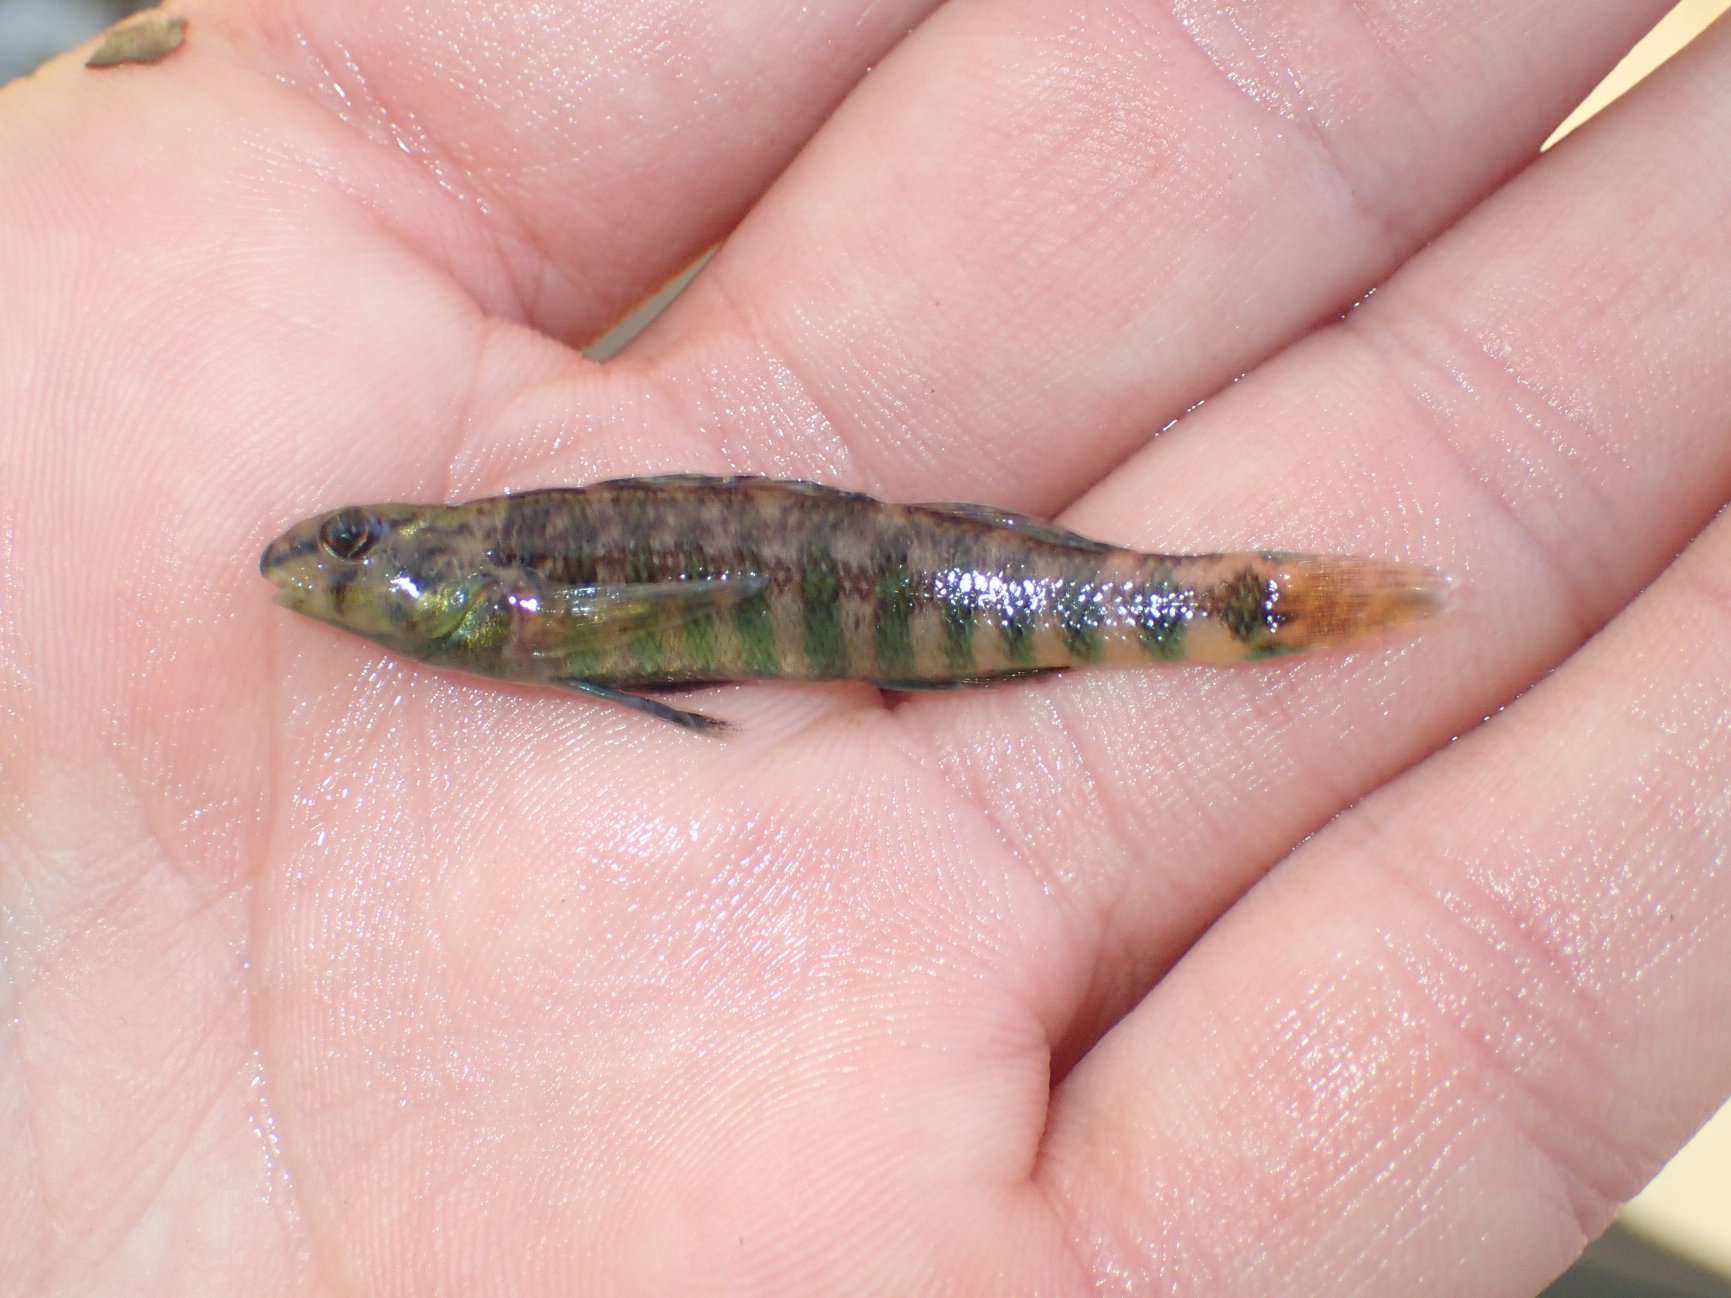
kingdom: Animalia
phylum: Chordata
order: Perciformes
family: Percidae
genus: Etheostoma
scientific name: Etheostoma zonale
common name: Banded darter
